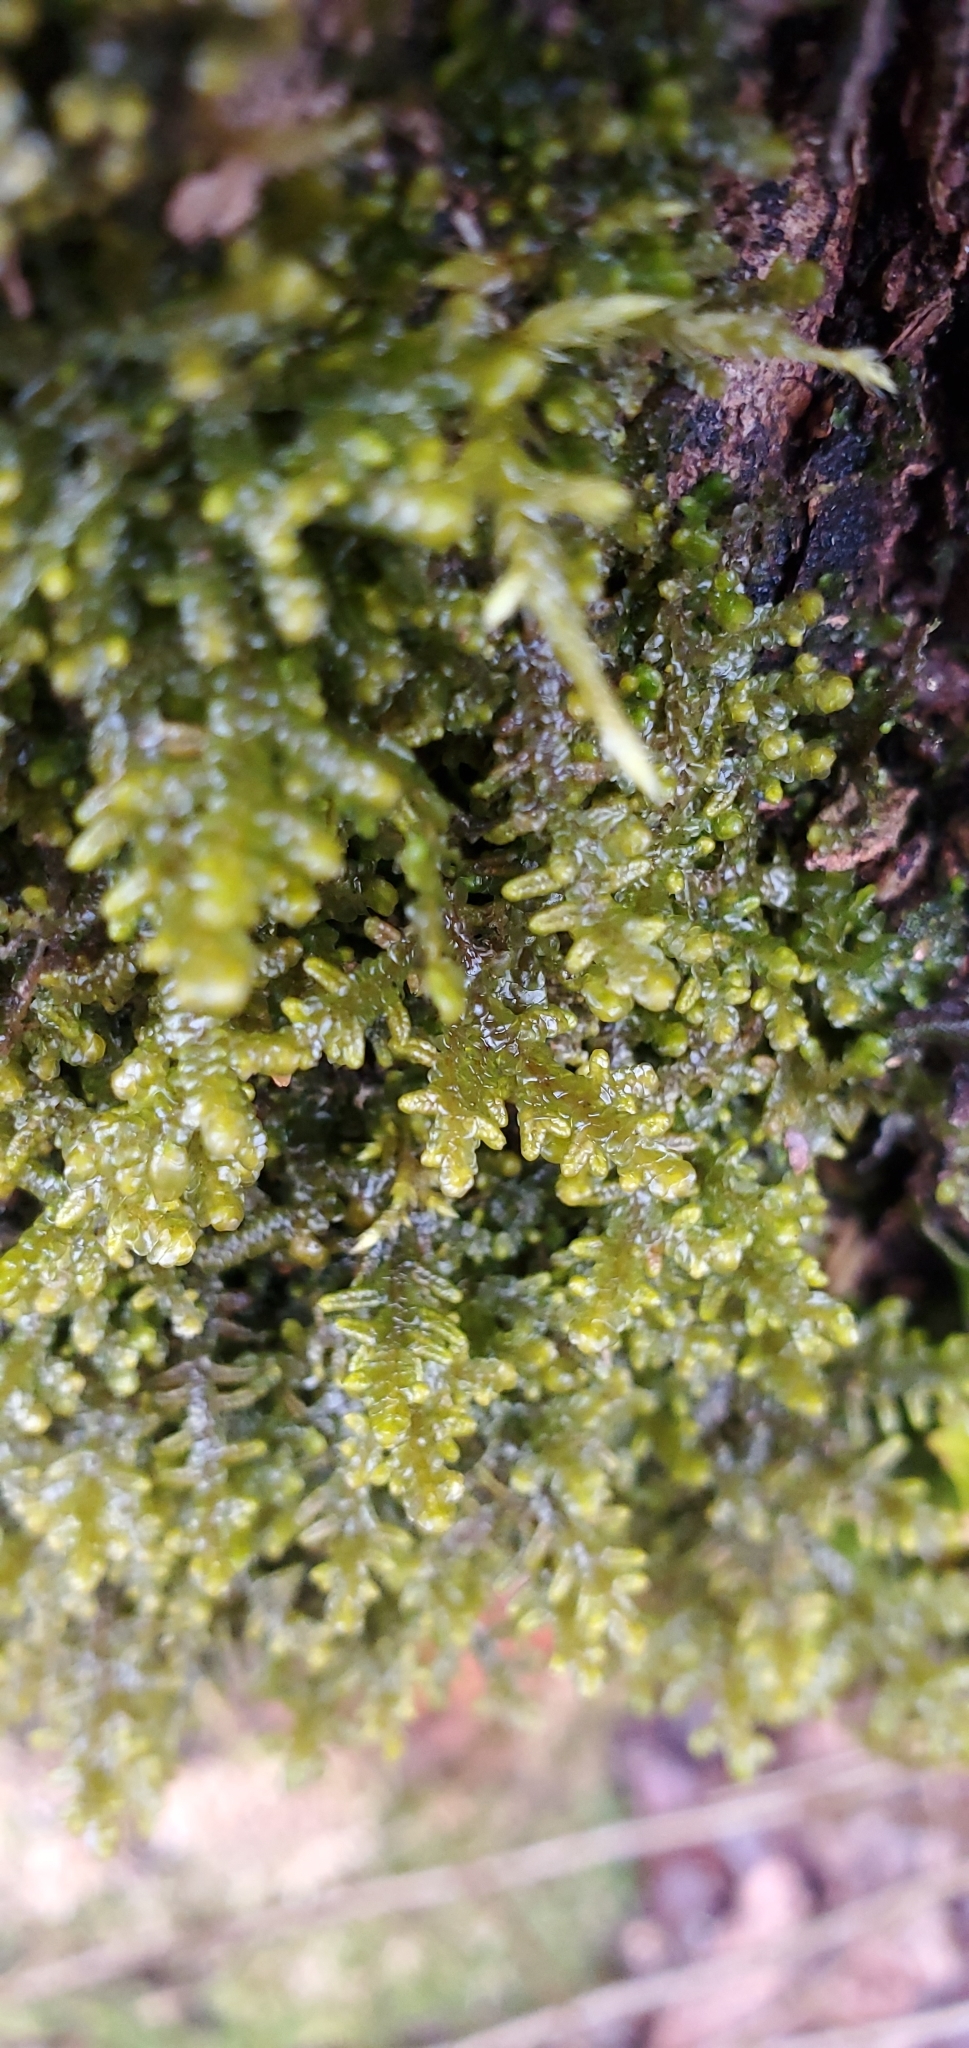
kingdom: Plantae
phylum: Marchantiophyta
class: Jungermanniopsida
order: Porellales
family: Porellaceae
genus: Porella
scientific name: Porella platyphylla
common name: Wall scalewort
